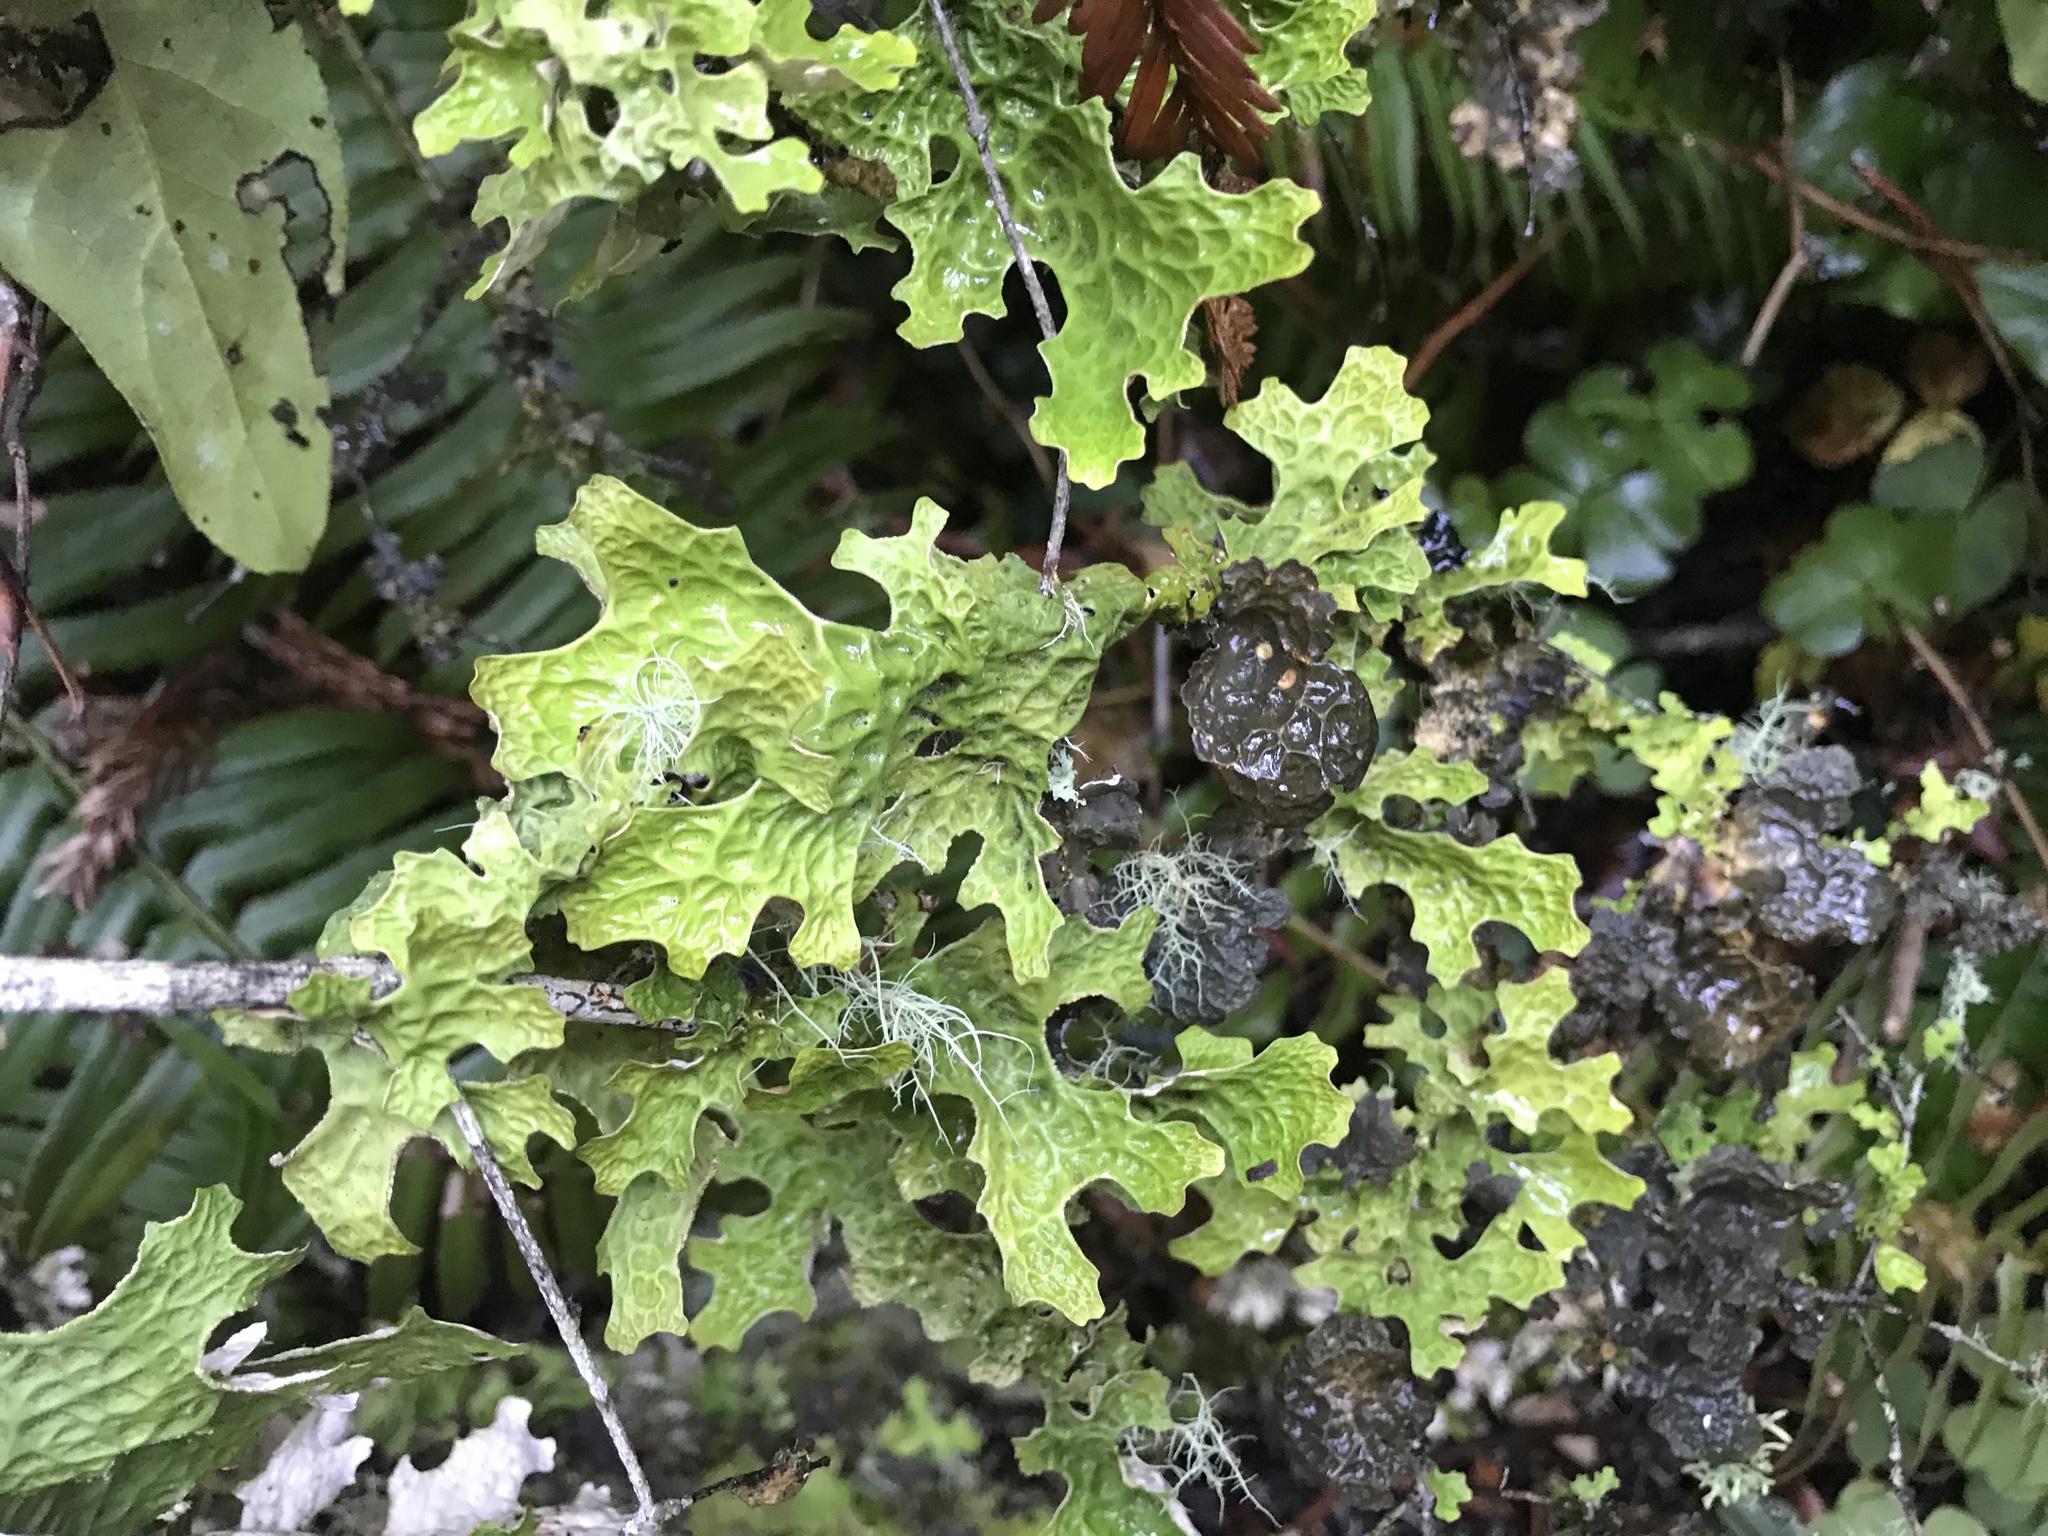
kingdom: Fungi
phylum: Ascomycota
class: Lecanoromycetes
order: Peltigerales
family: Lobariaceae
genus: Lobaria
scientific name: Lobaria pulmonaria
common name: Lungwort
